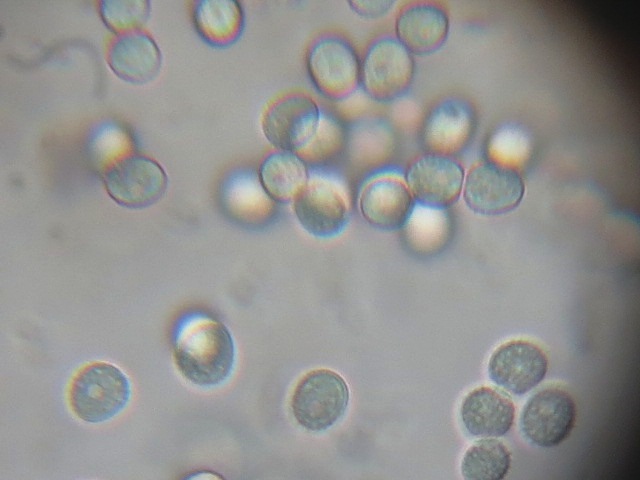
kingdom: Fungi
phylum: Basidiomycota
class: Agaricomycetes
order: Agaricales
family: Tricholomataceae
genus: Conchomyces
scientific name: Conchomyces bursiformis
